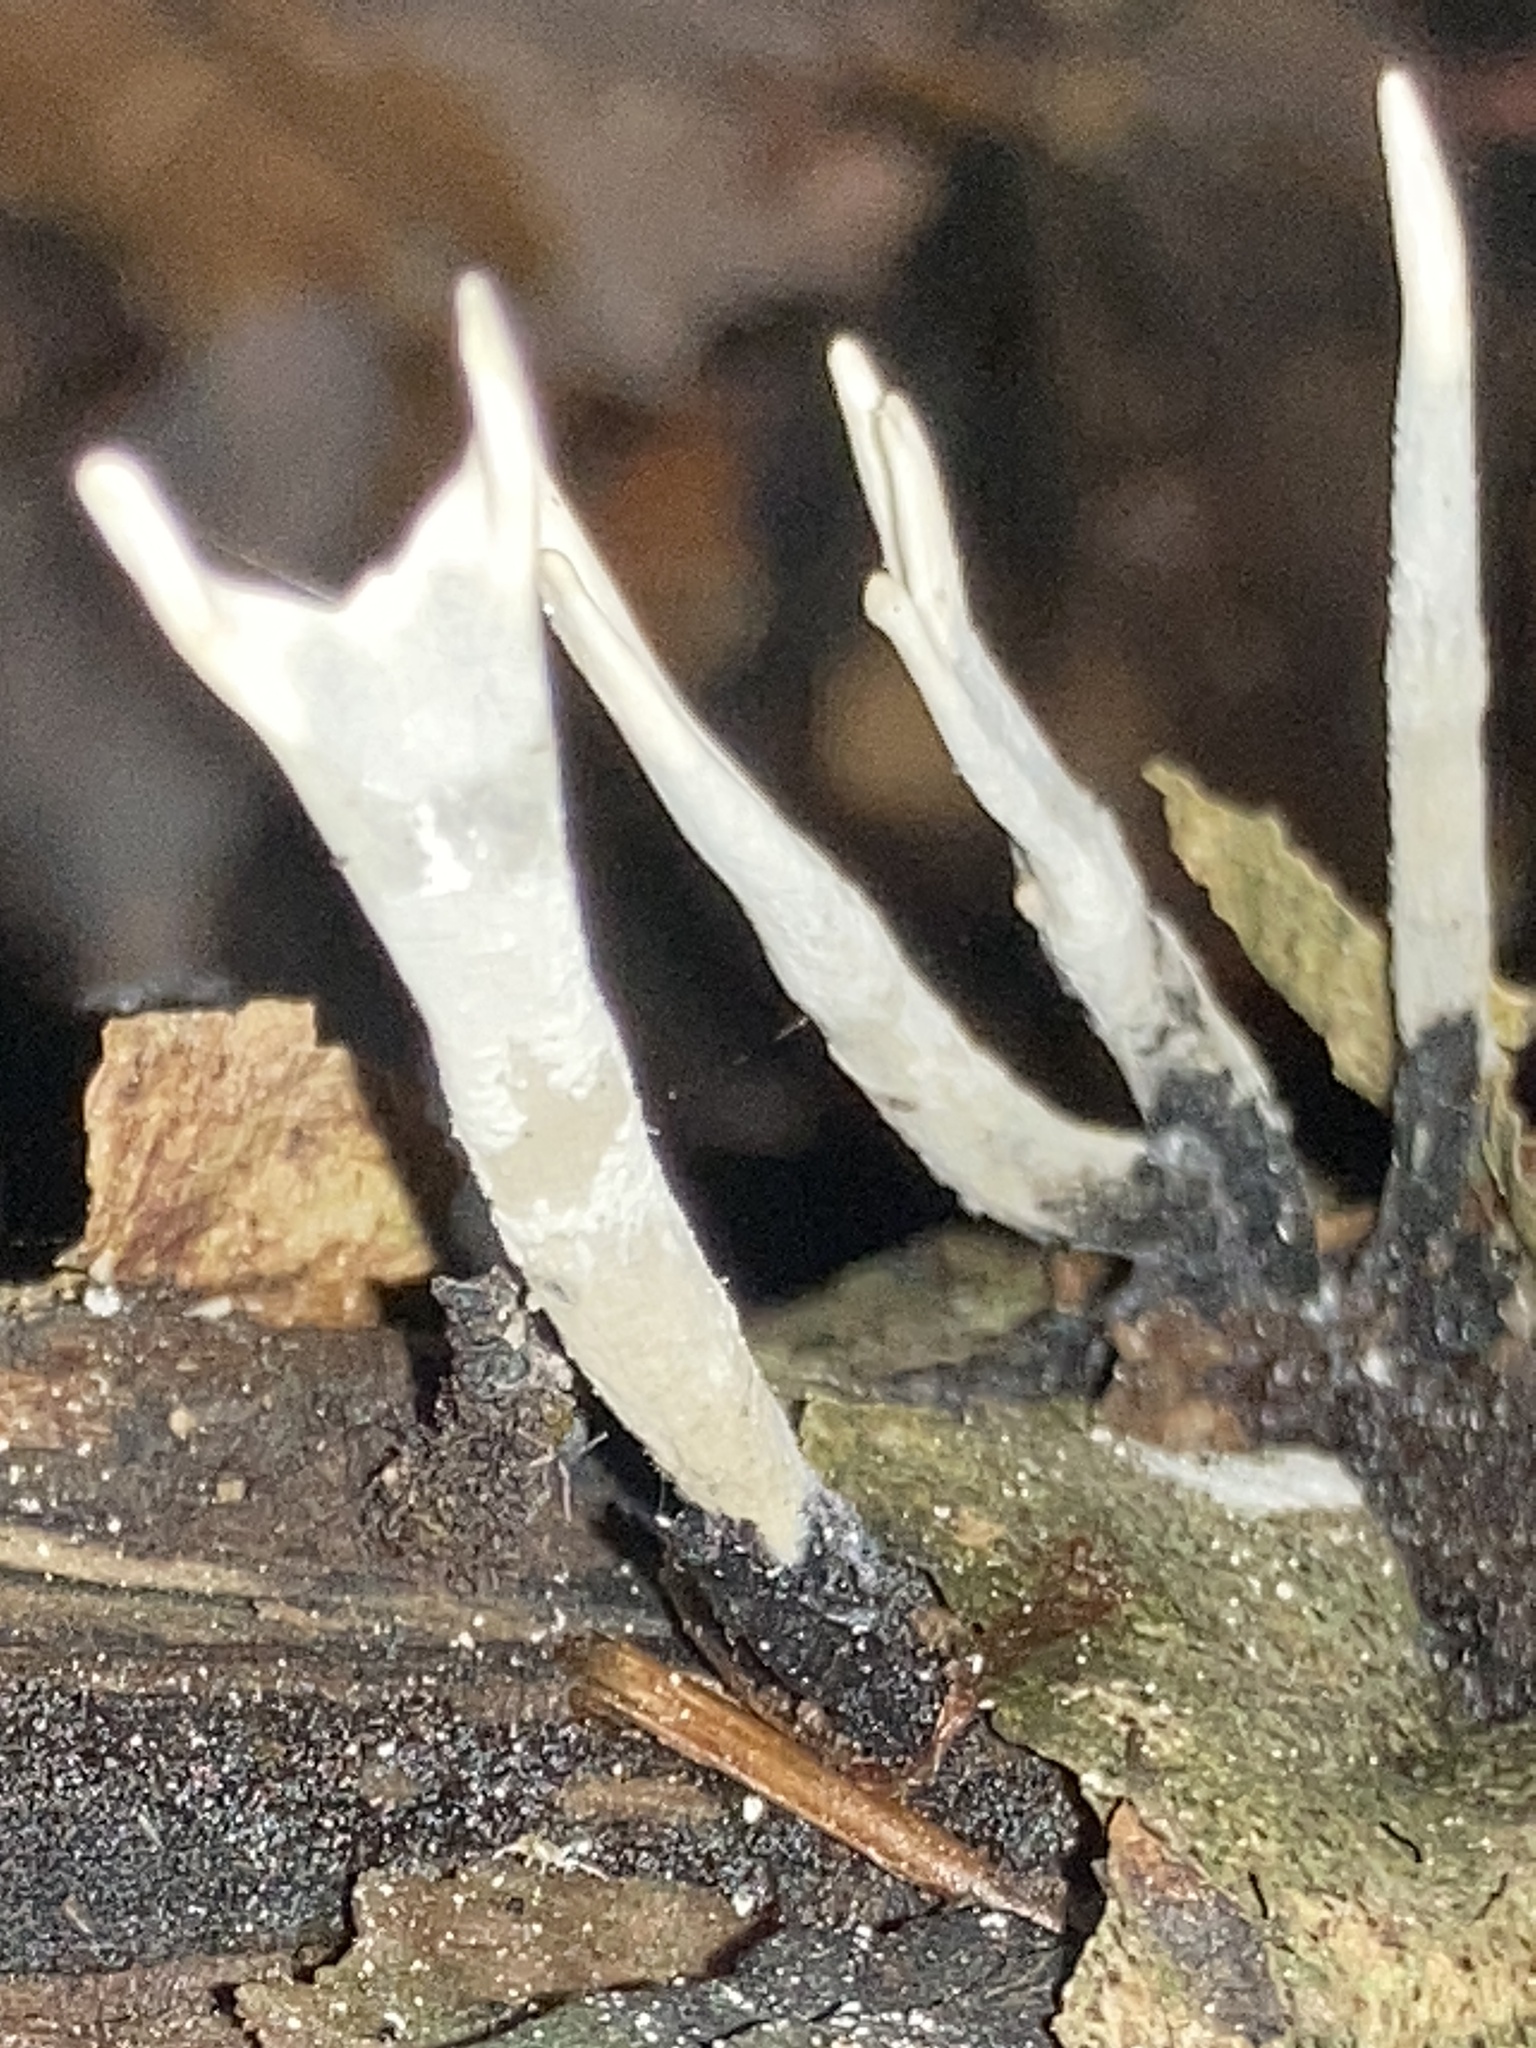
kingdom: Fungi
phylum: Ascomycota
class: Sordariomycetes
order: Xylariales
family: Xylariaceae
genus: Xylaria
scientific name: Xylaria hypoxylon
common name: Candle-snuff fungus
